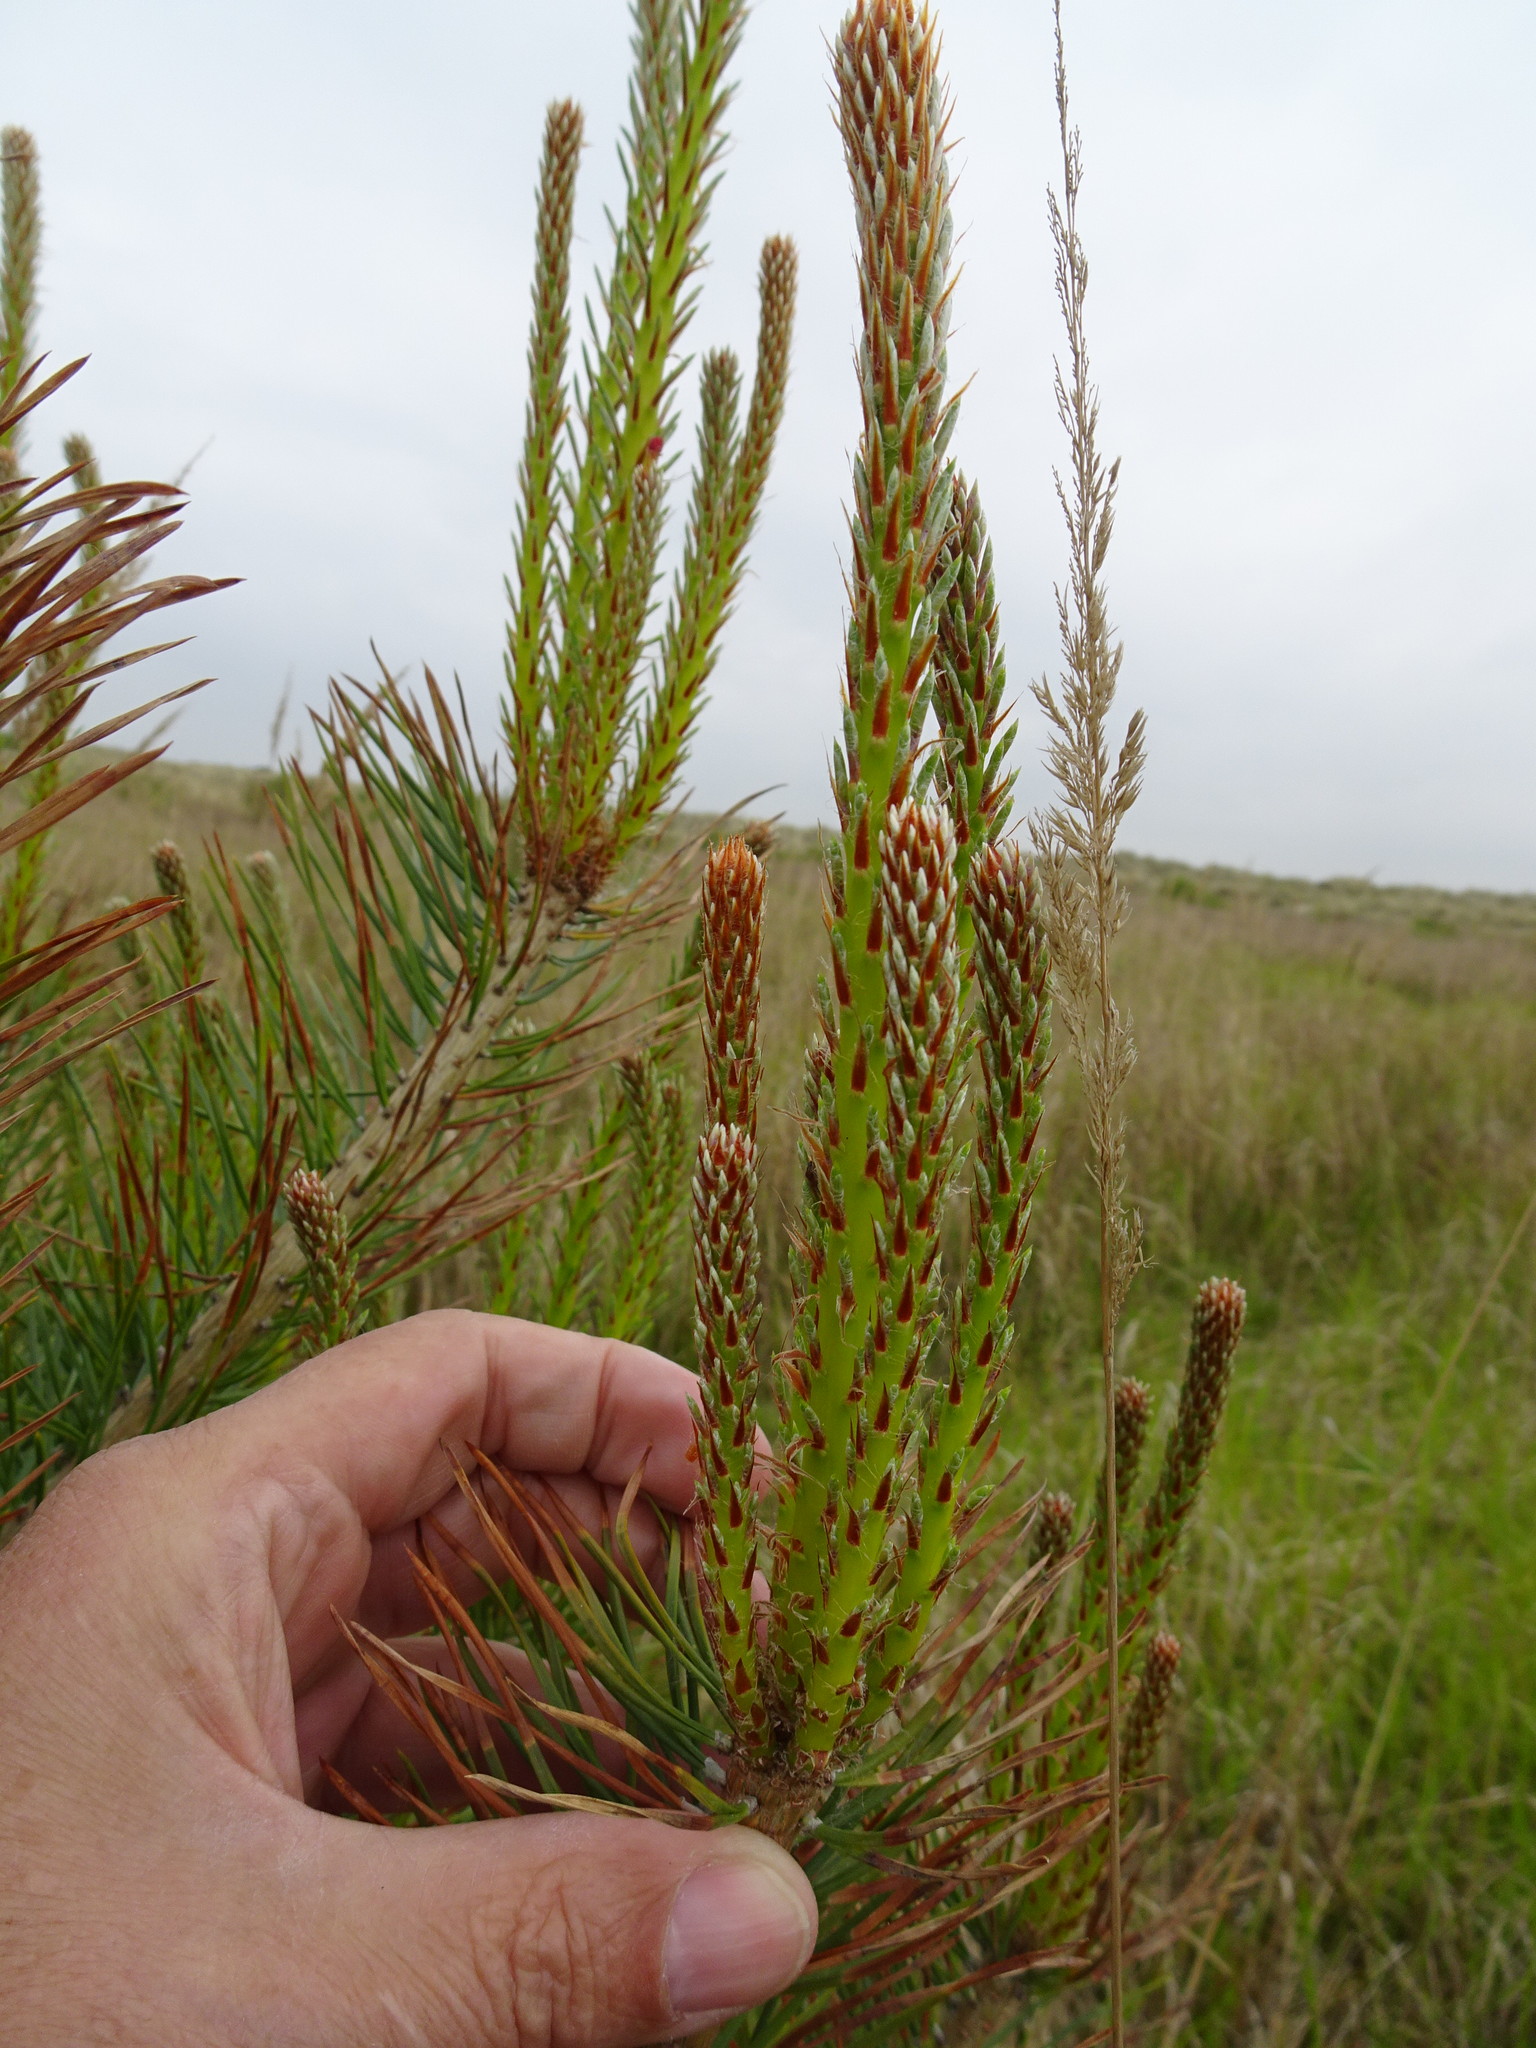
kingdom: Plantae
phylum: Tracheophyta
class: Pinopsida
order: Pinales
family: Pinaceae
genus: Pinus
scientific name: Pinus sylvestris
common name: Scots pine
